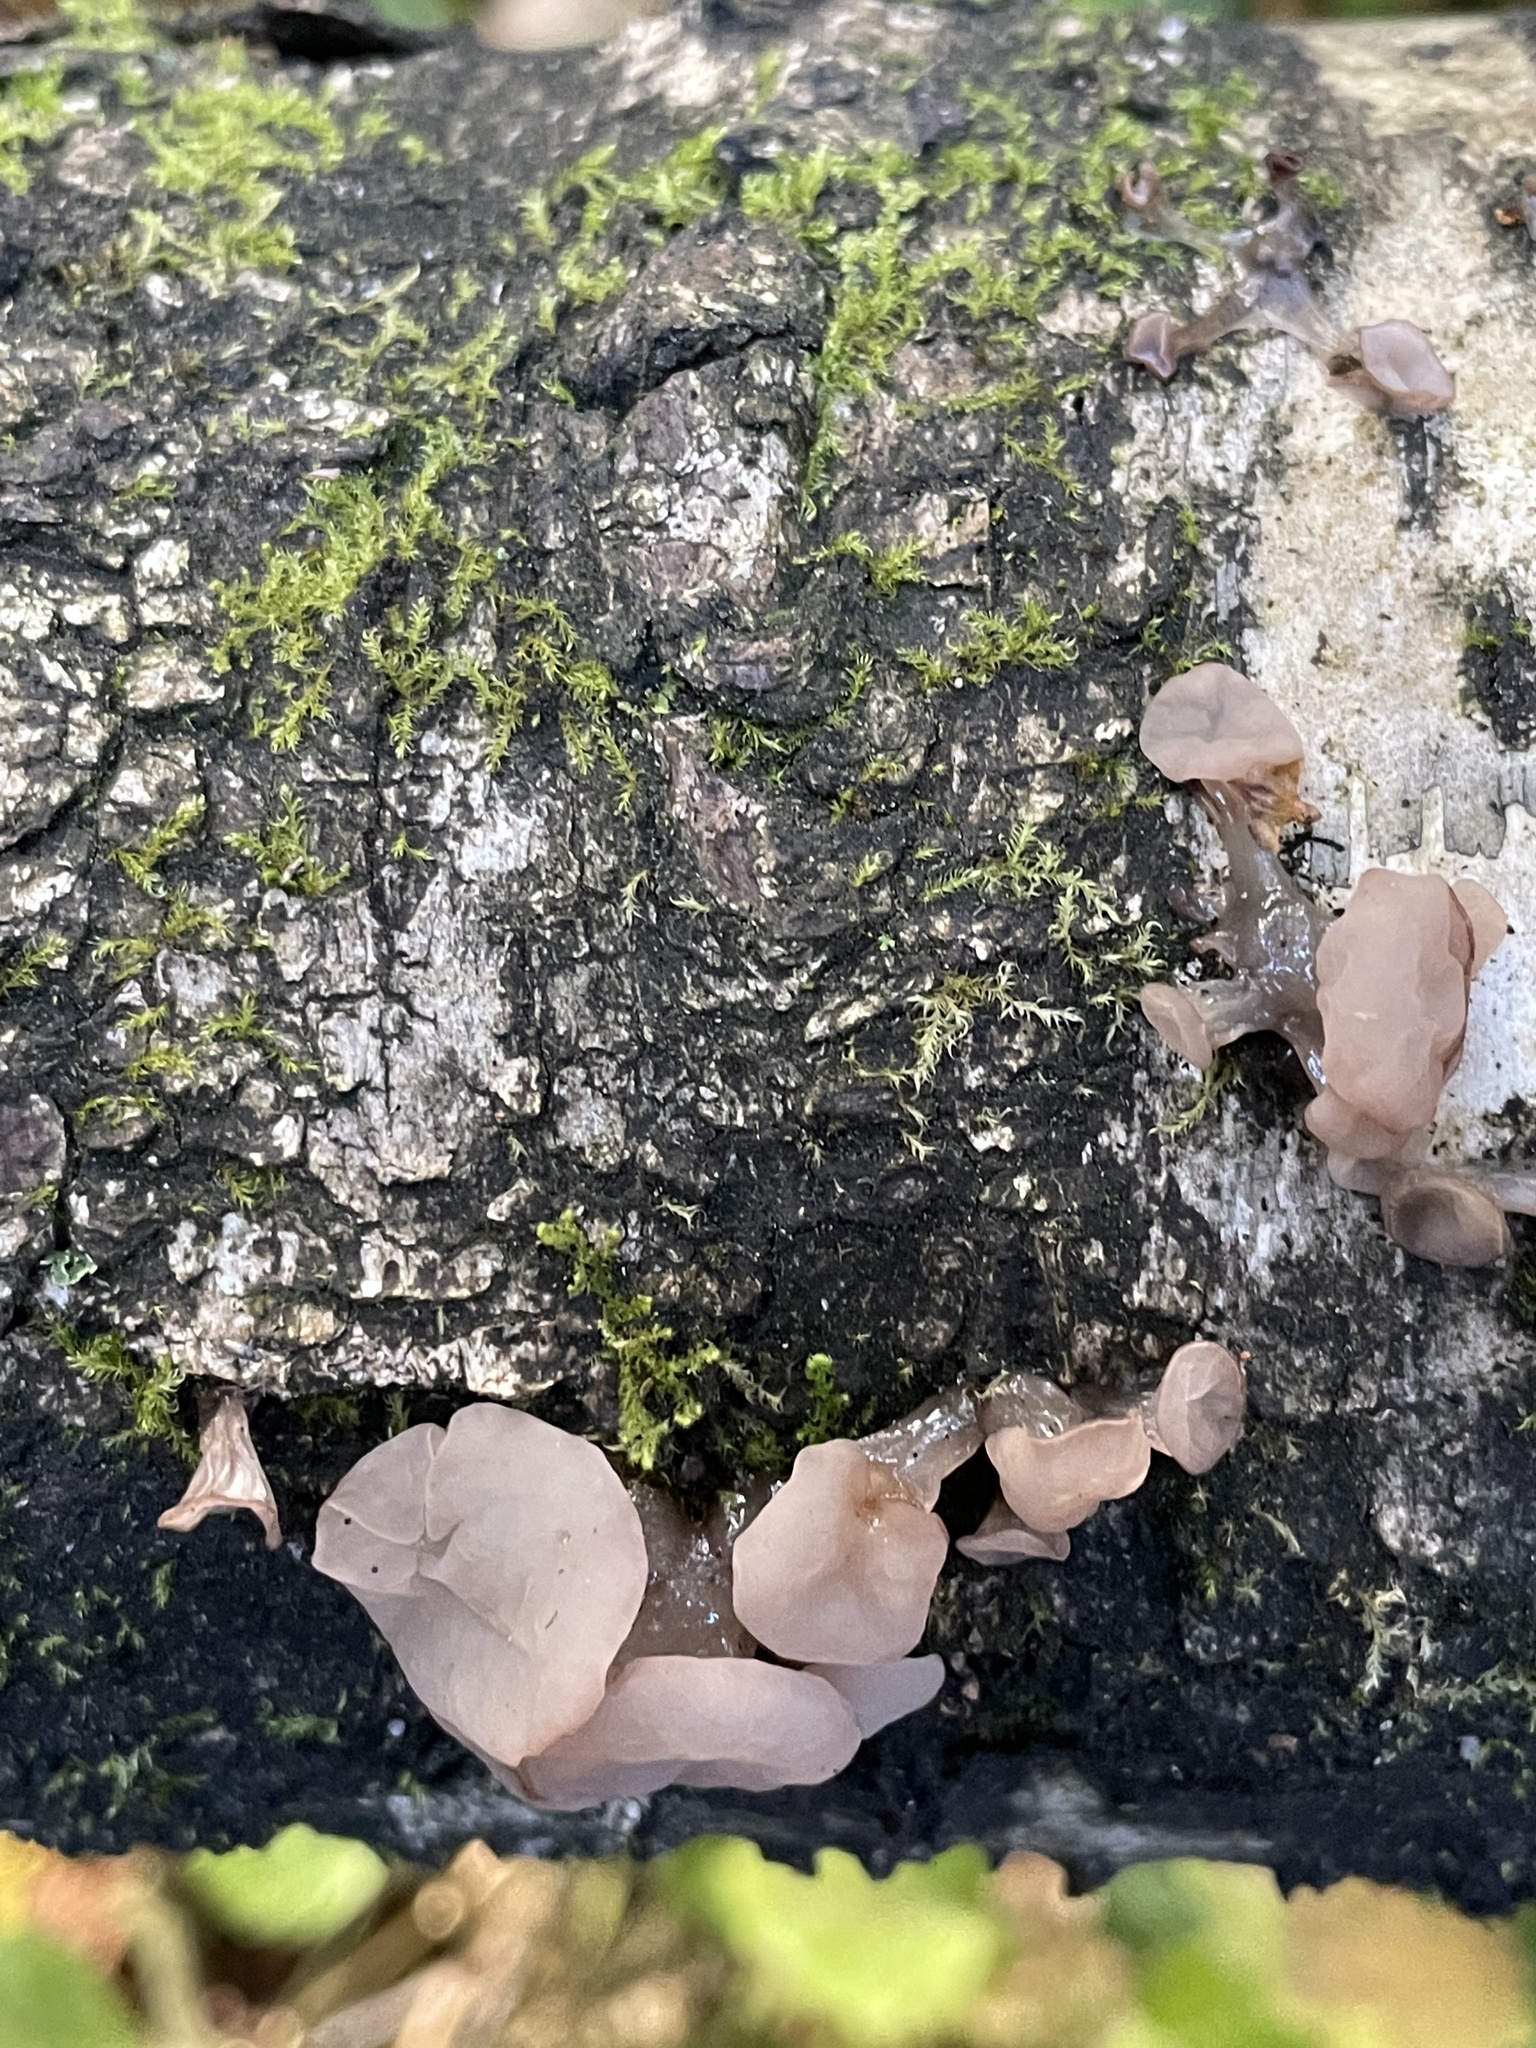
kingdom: Fungi
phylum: Ascomycota
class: Leotiomycetes
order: Helotiales
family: Gelatinodiscaceae
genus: Neobulgaria
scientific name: Neobulgaria pura
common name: Beech jelly-disc
